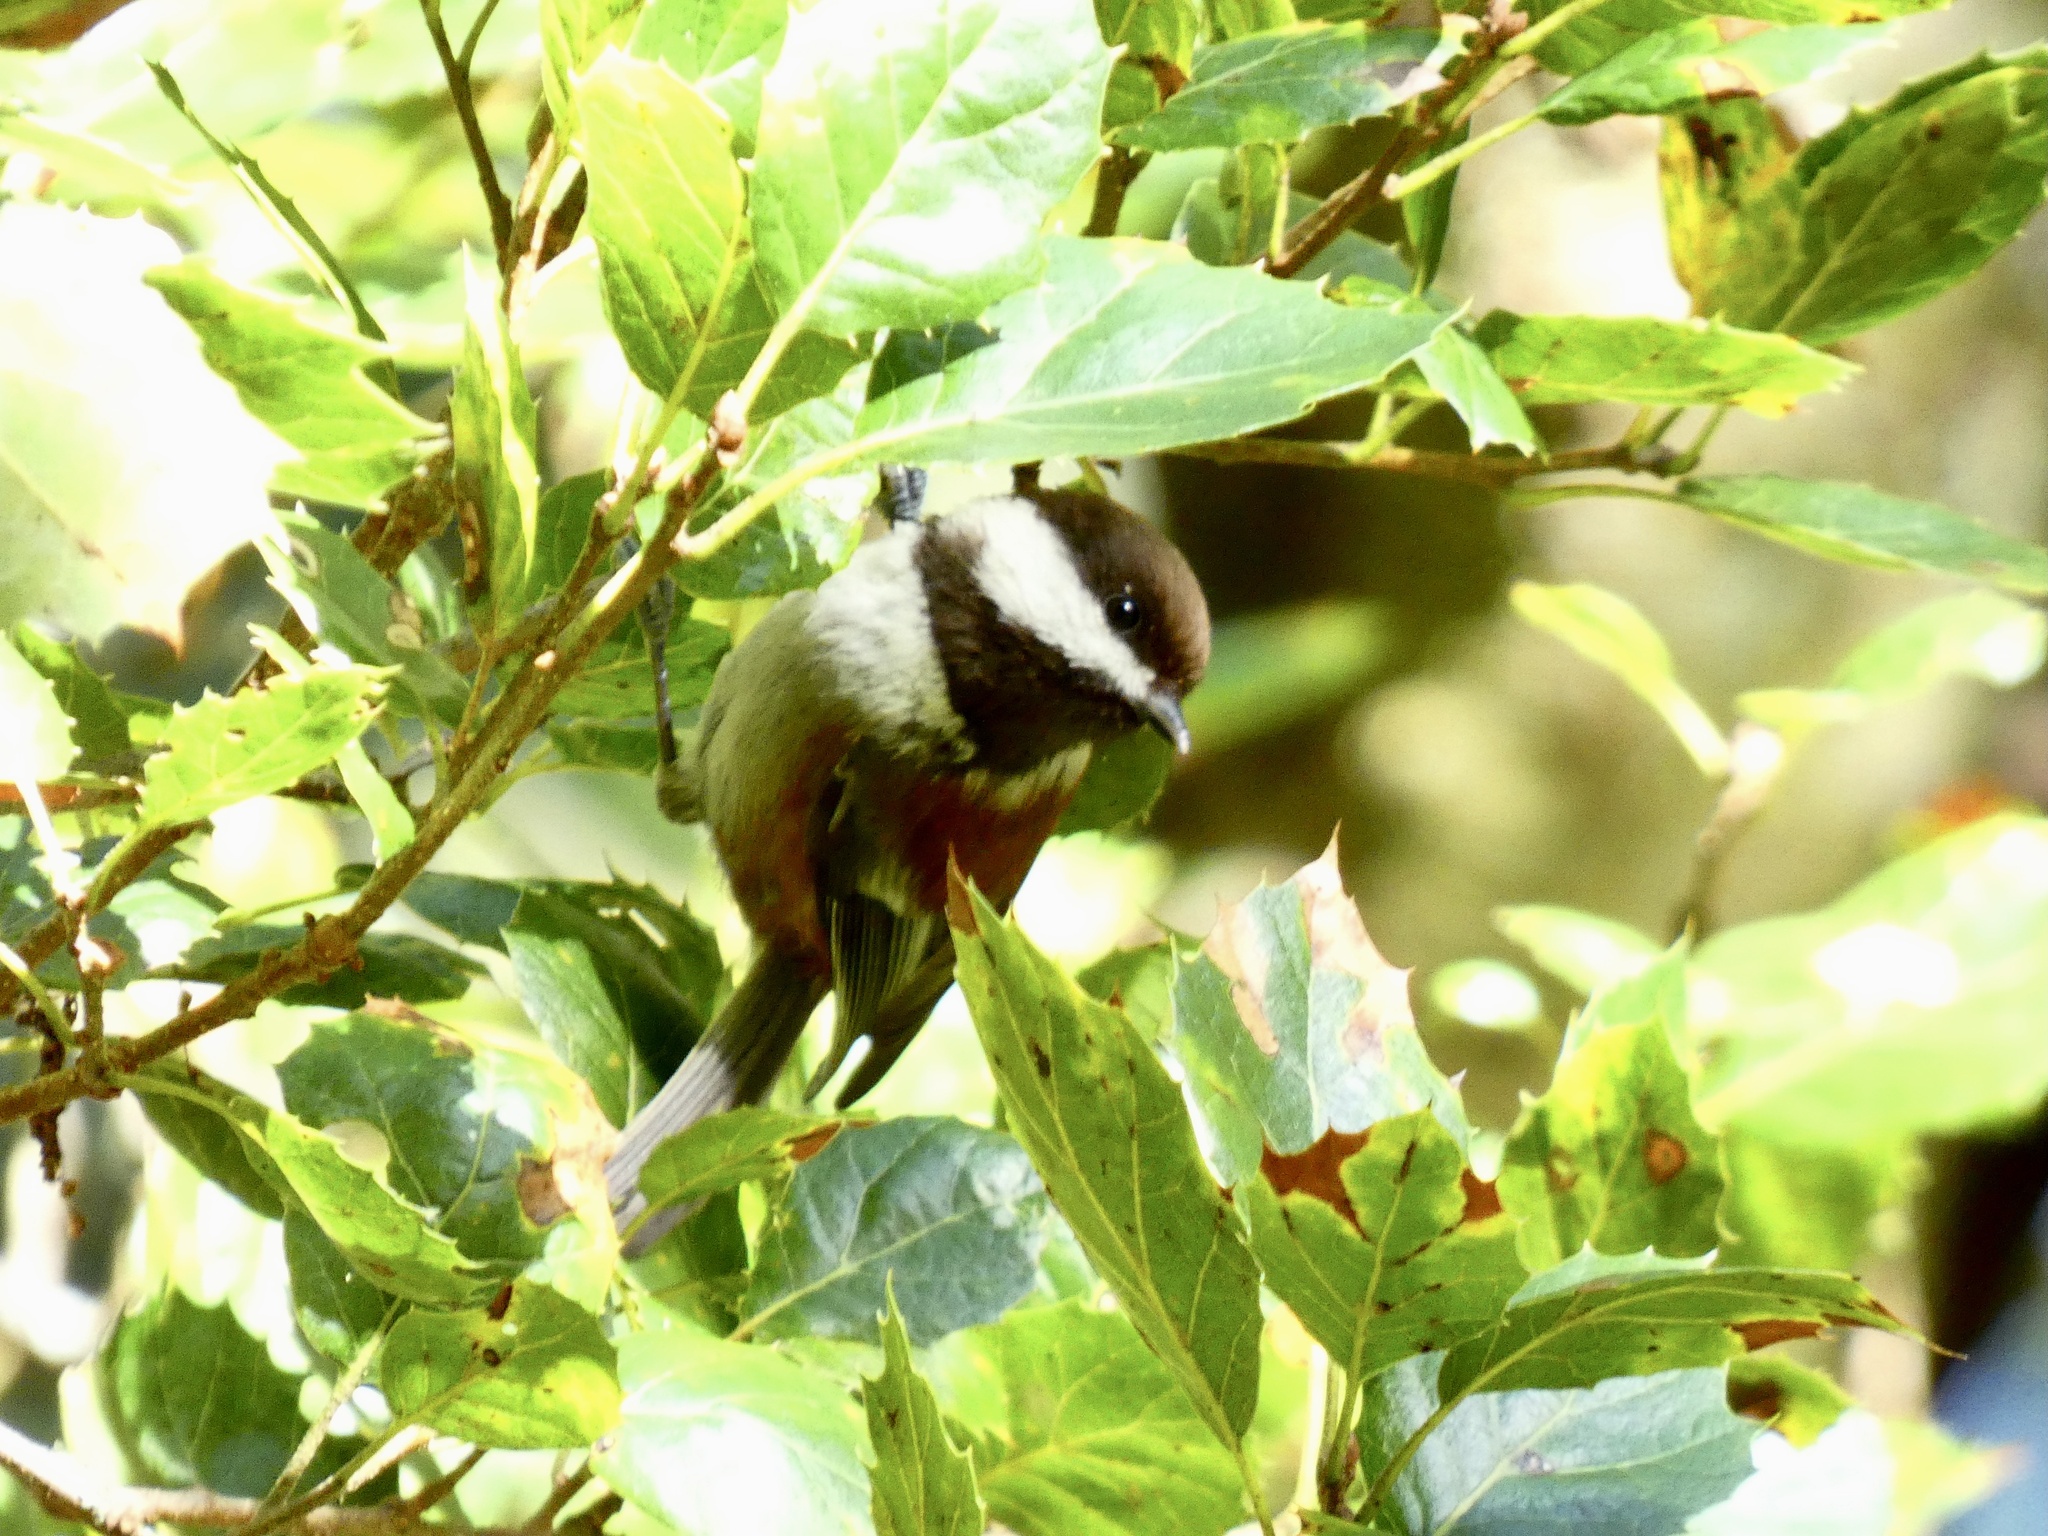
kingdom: Animalia
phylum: Chordata
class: Aves
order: Passeriformes
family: Paridae
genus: Poecile
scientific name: Poecile rufescens
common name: Chestnut-backed chickadee
